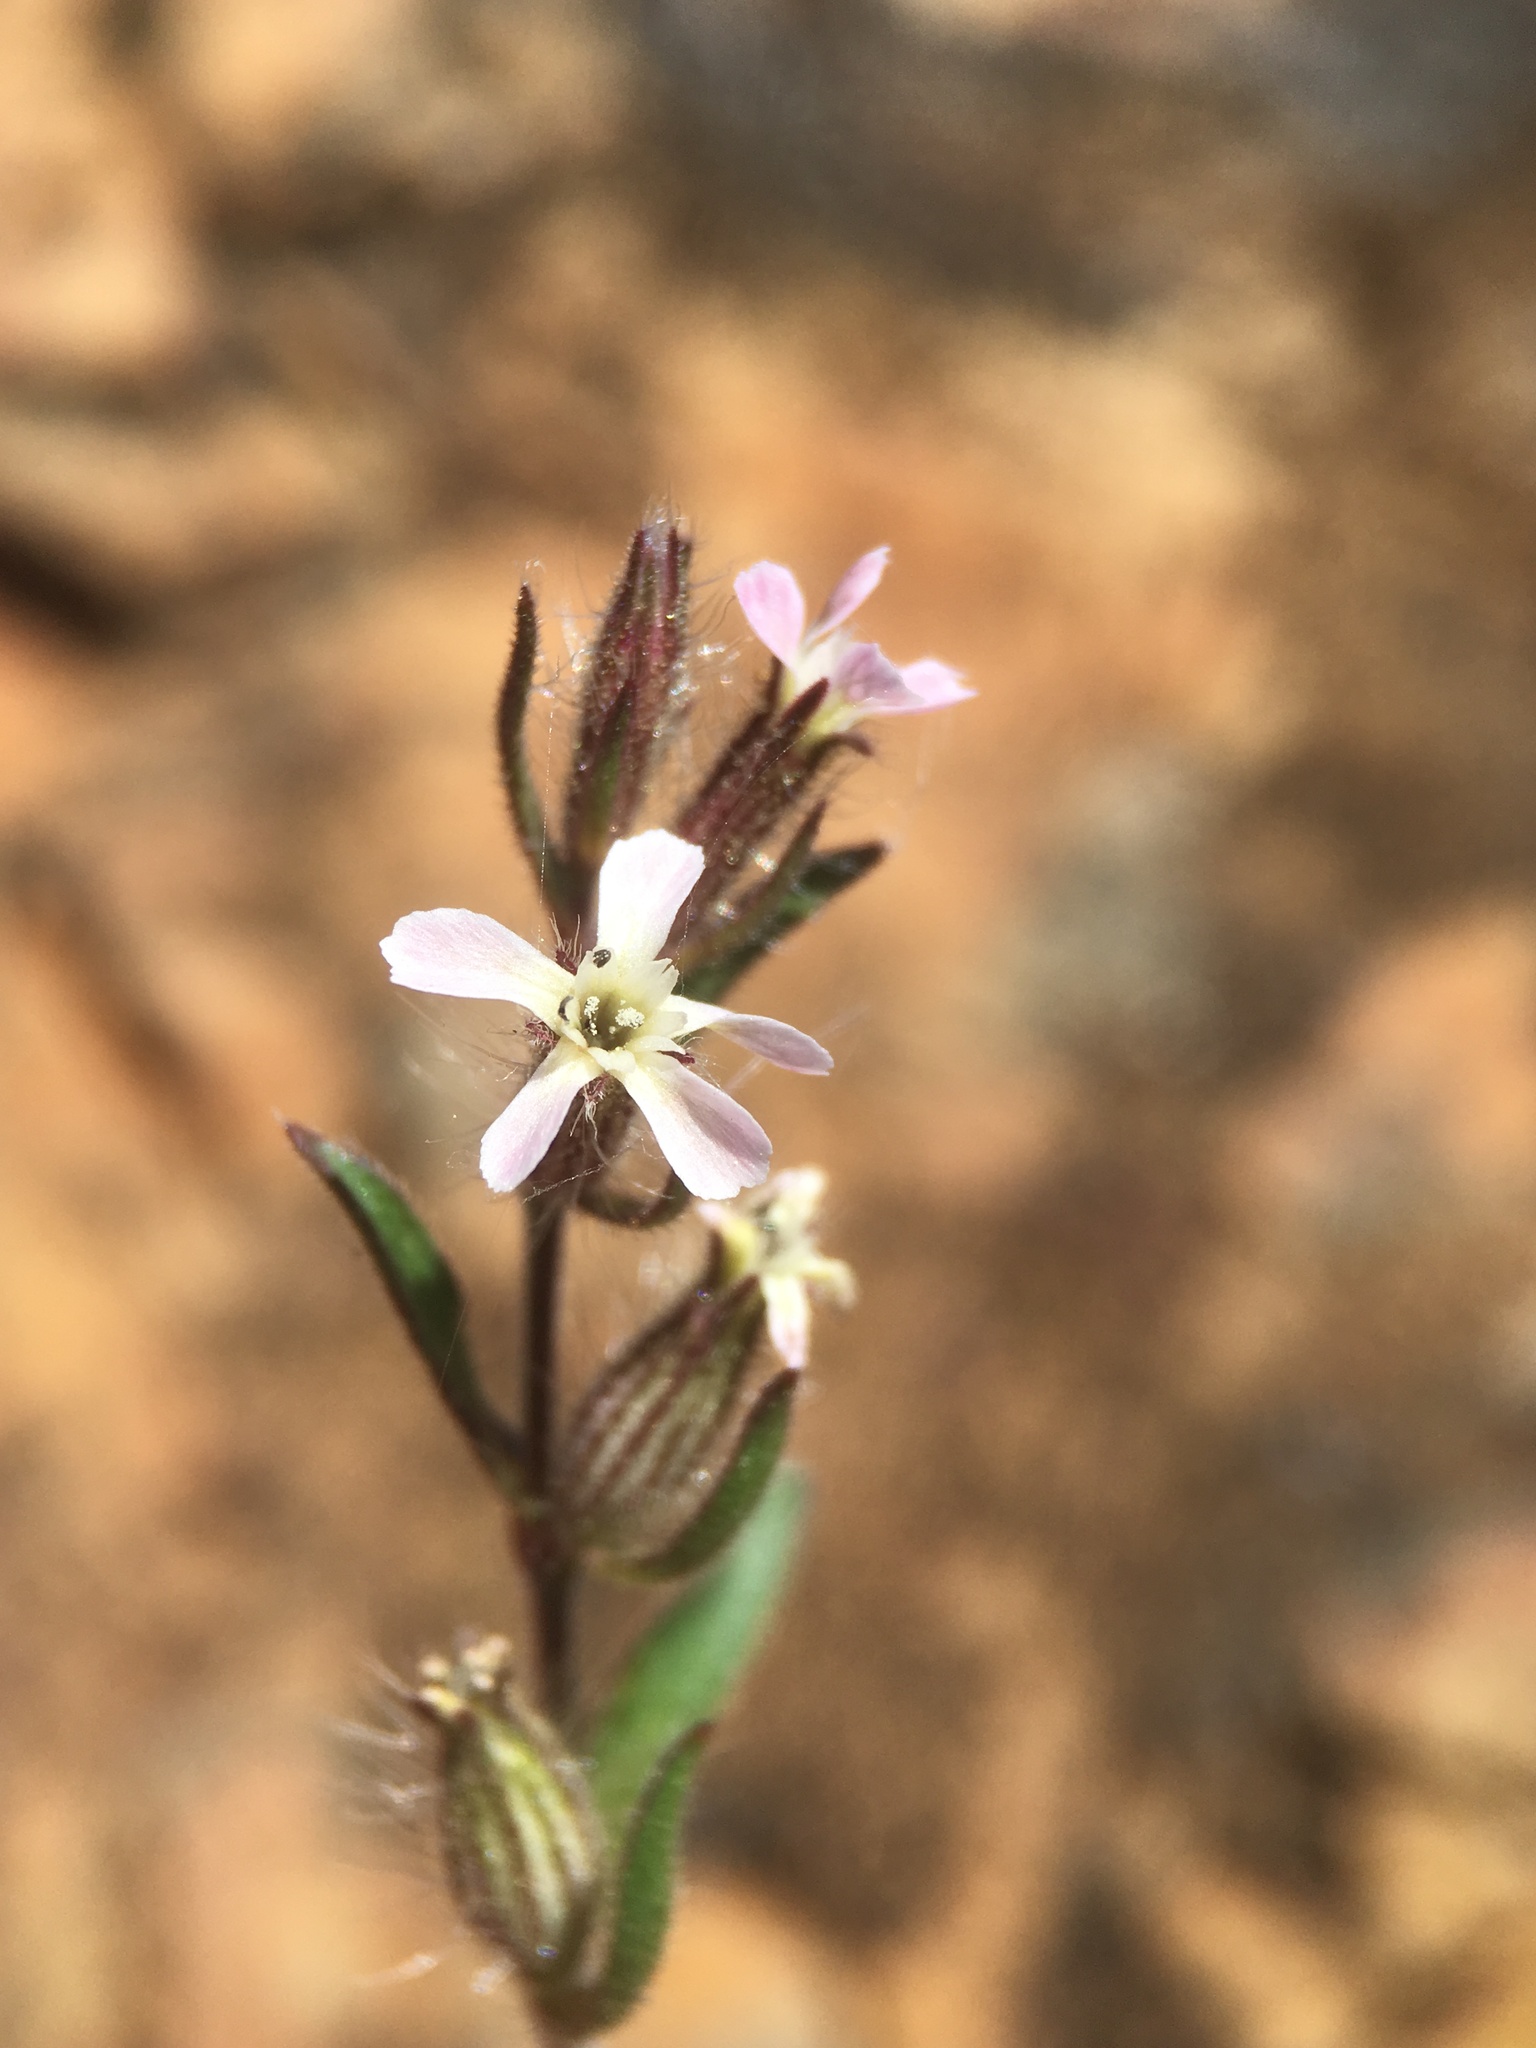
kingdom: Plantae
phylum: Tracheophyta
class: Magnoliopsida
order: Caryophyllales
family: Caryophyllaceae
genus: Silene
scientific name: Silene gallica
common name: Small-flowered catchfly
